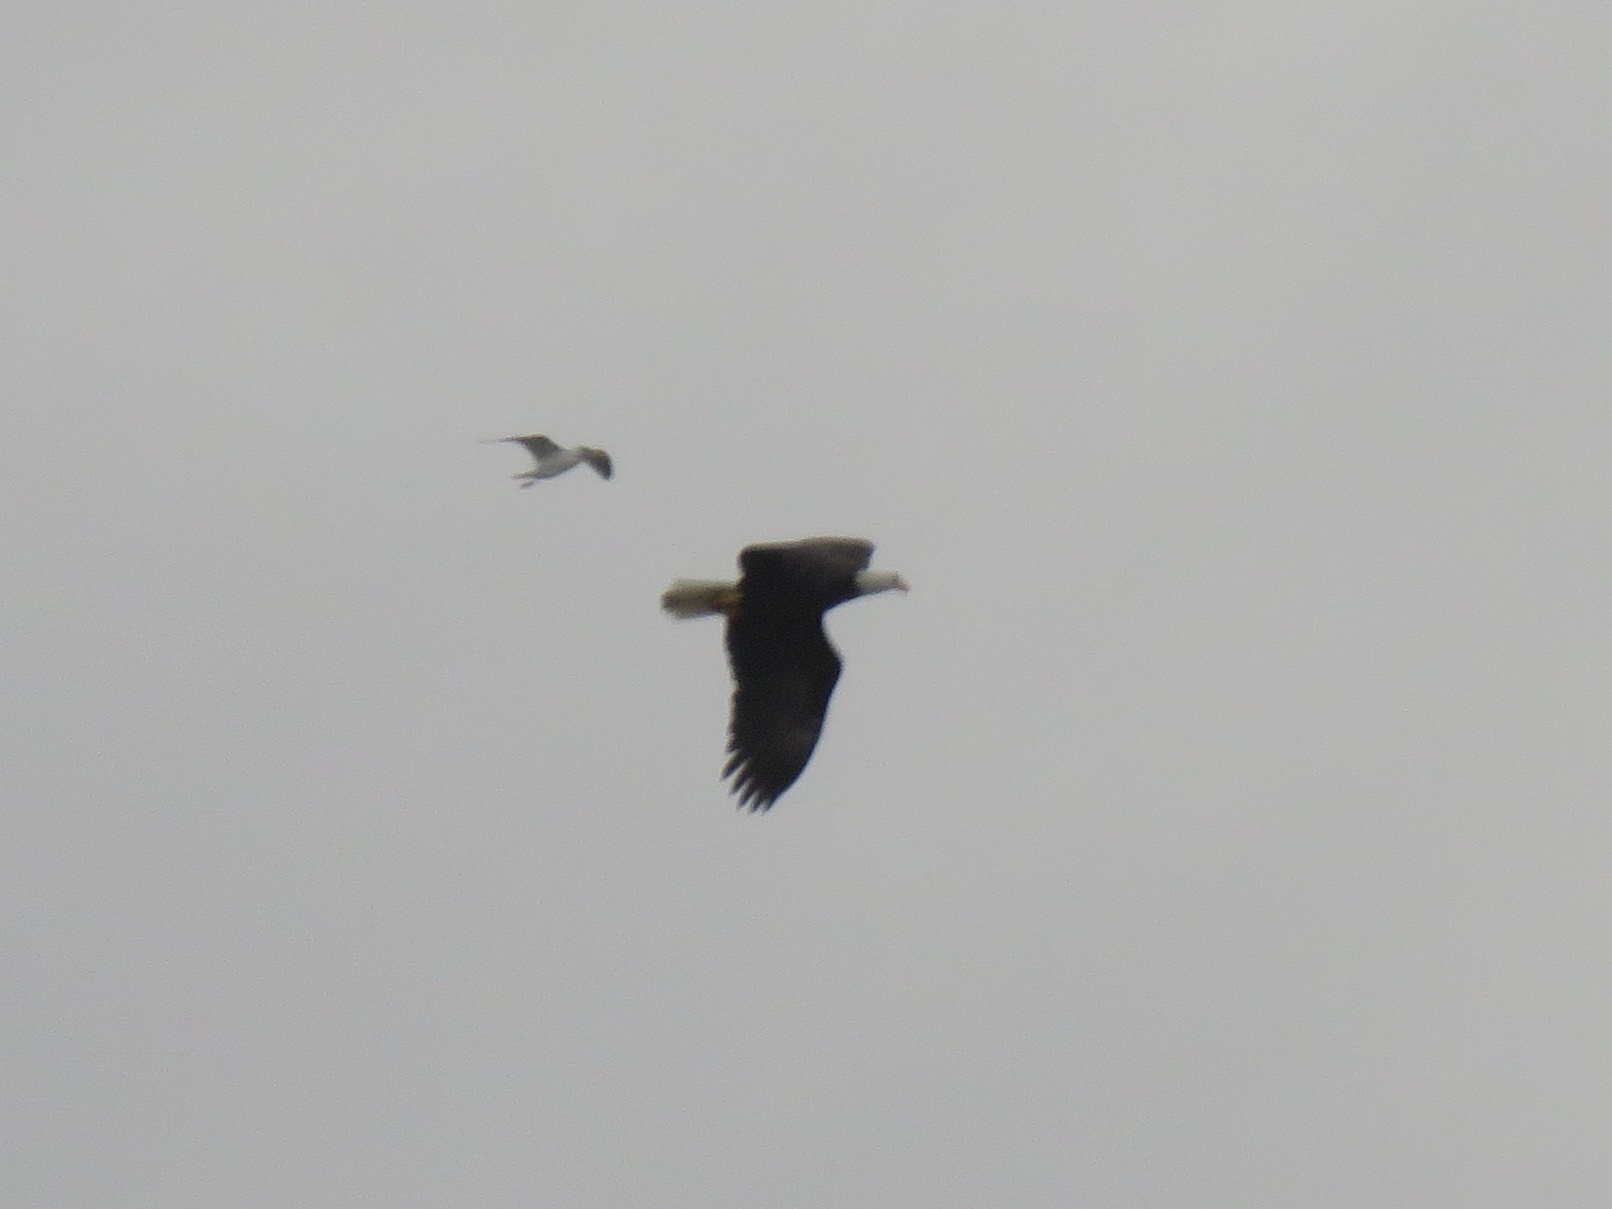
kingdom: Animalia
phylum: Chordata
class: Aves
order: Accipitriformes
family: Accipitridae
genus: Haliaeetus
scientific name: Haliaeetus leucocephalus
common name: Bald eagle
